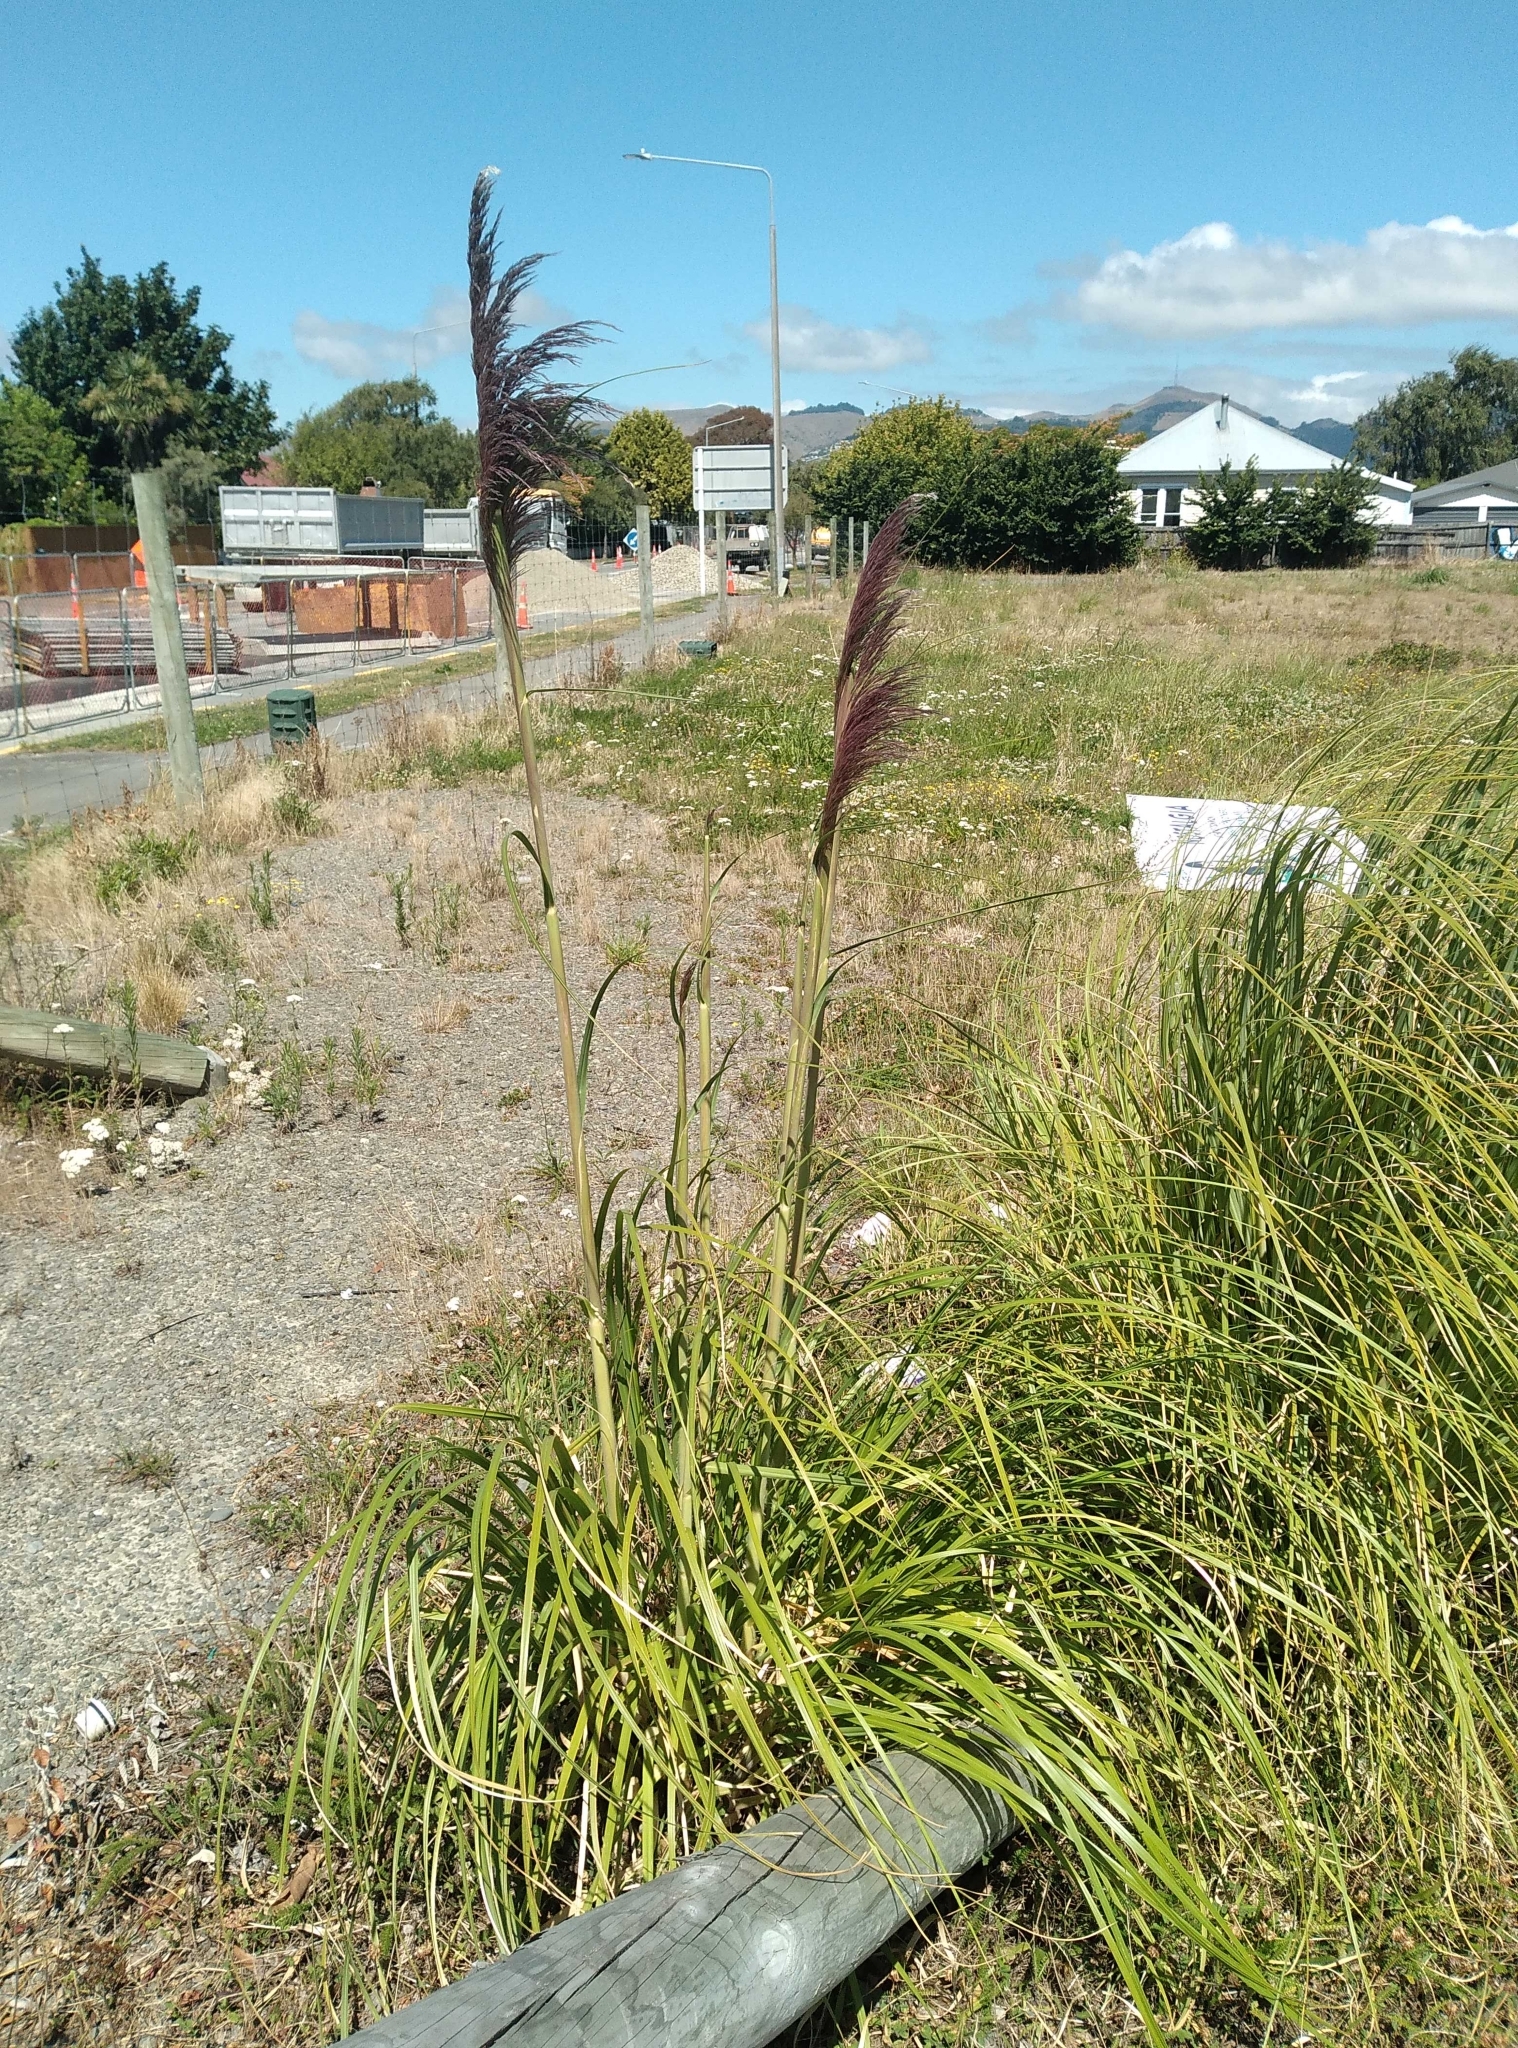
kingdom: Plantae
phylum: Tracheophyta
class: Liliopsida
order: Poales
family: Poaceae
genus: Cortaderia
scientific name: Cortaderia jubata
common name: Purple pampas grass
